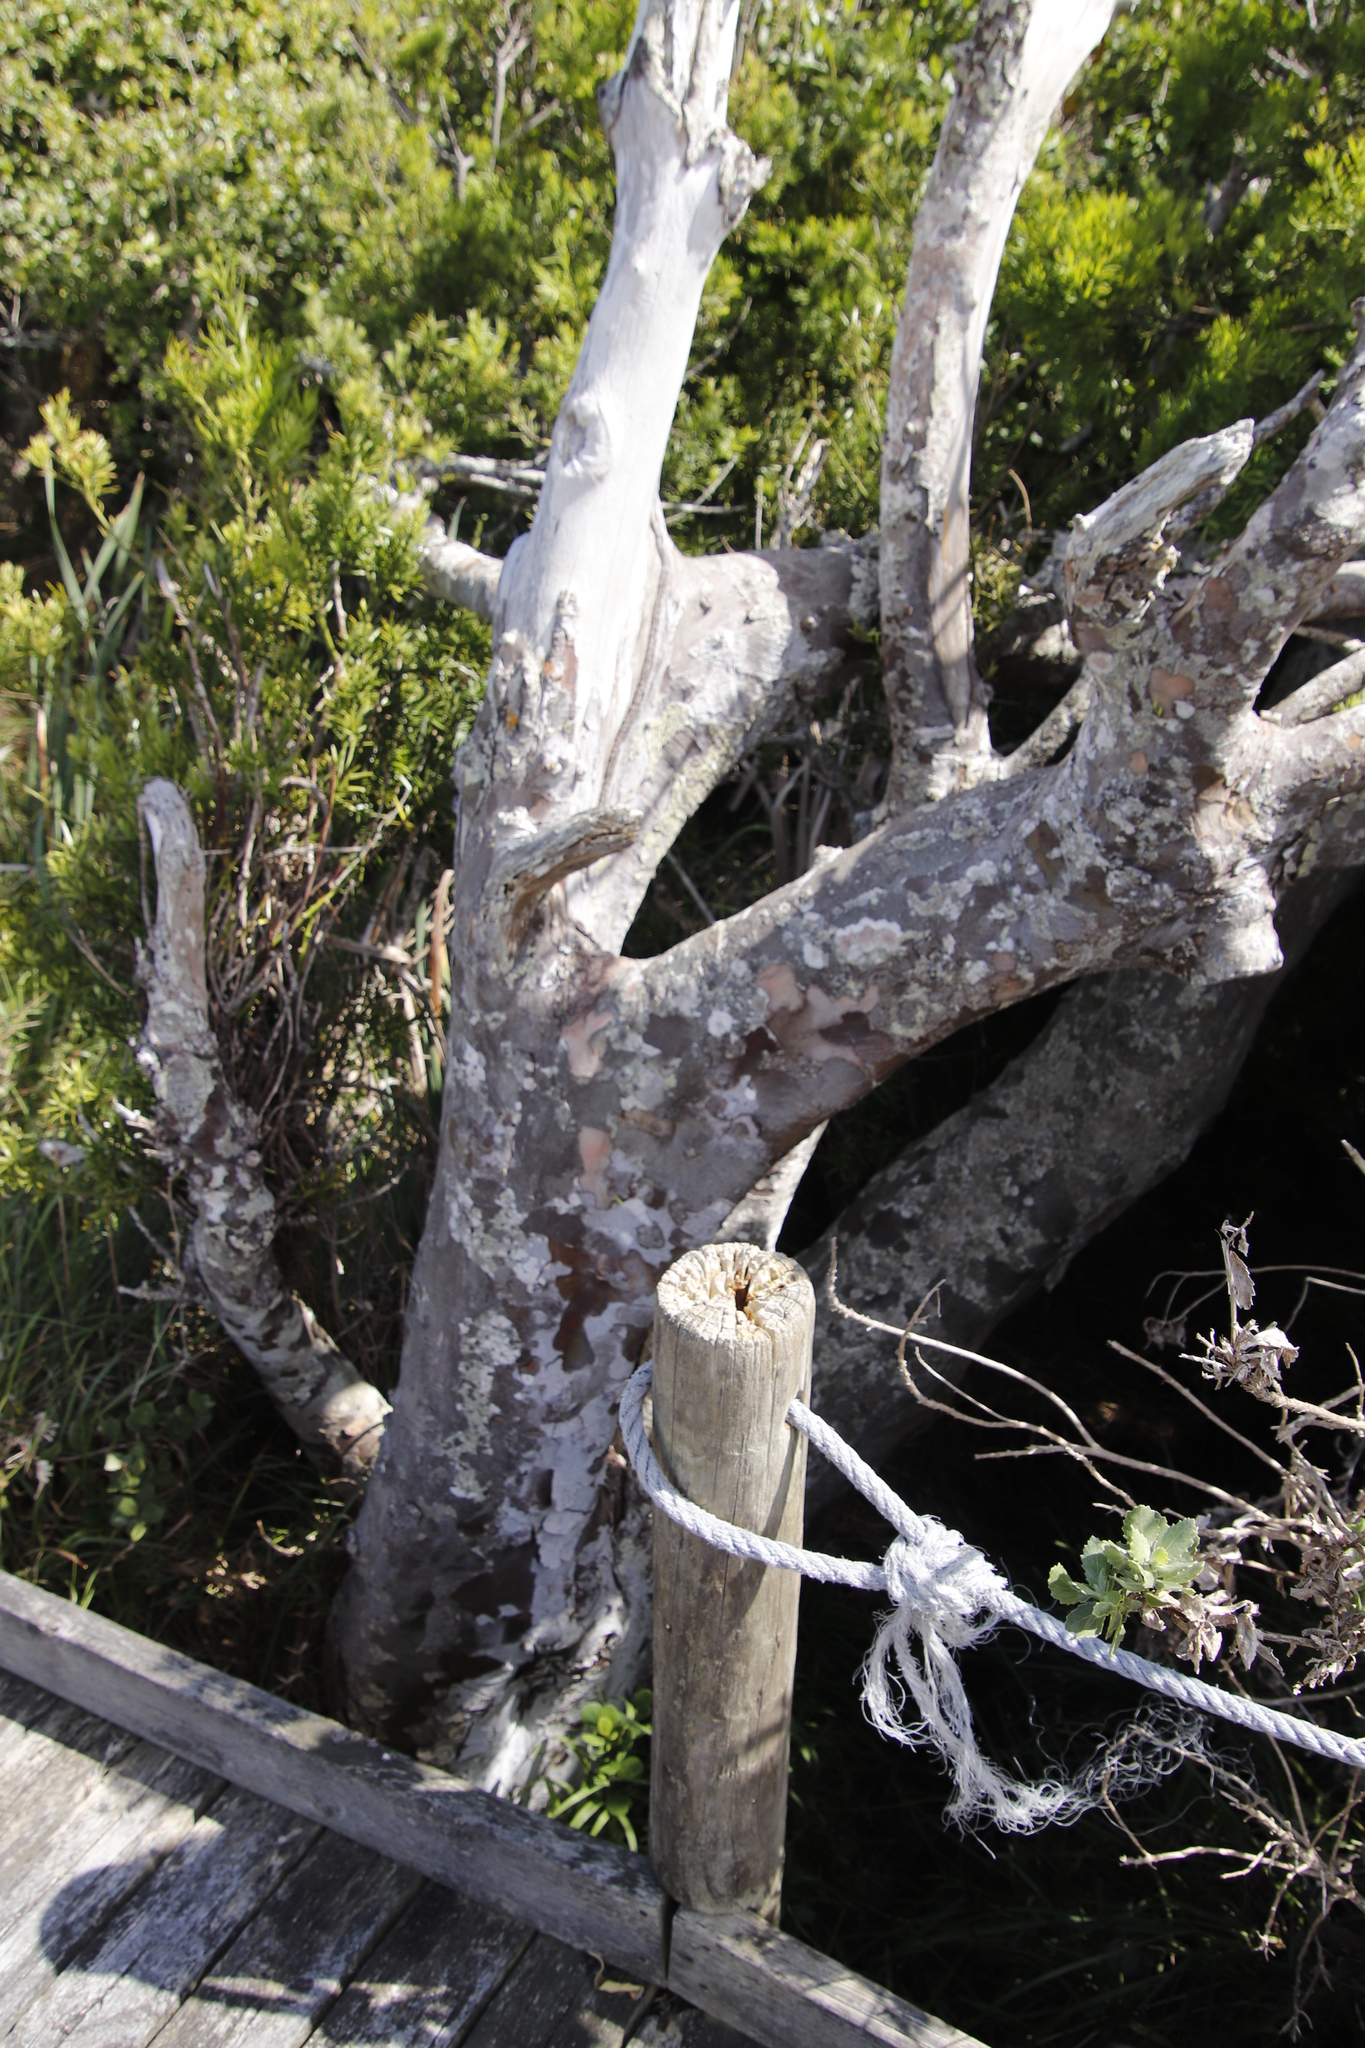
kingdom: Plantae
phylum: Tracheophyta
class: Pinopsida
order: Pinales
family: Podocarpaceae
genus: Afrocarpus
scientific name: Afrocarpus falcatus
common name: Bastard yellowwood
